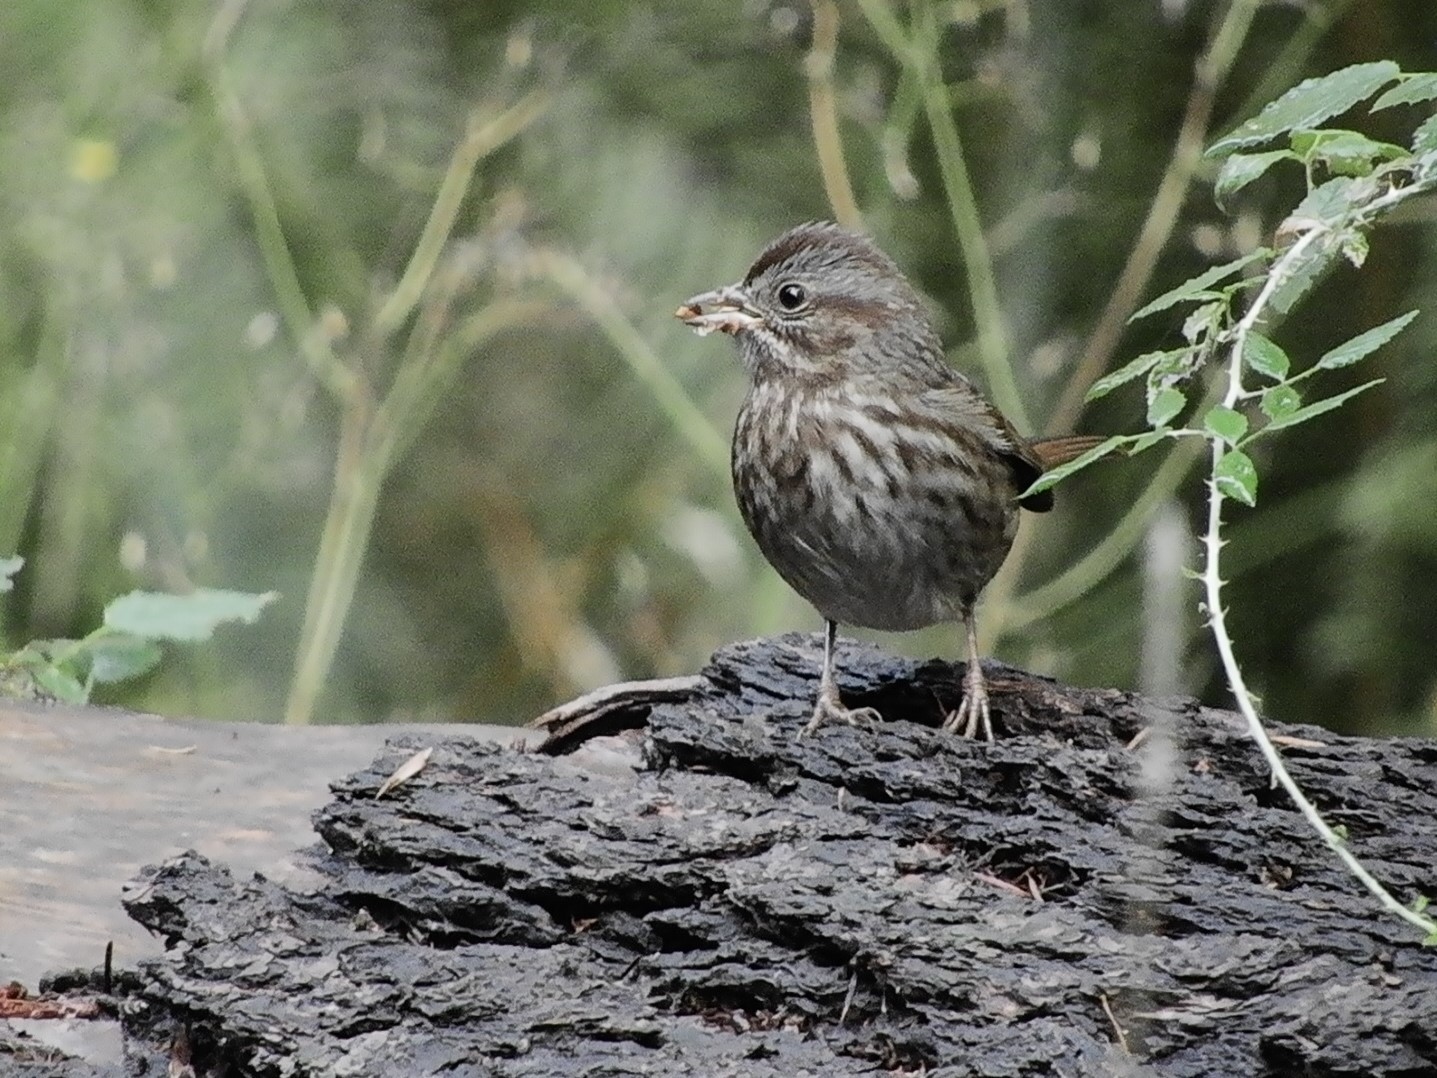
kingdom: Animalia
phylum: Chordata
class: Aves
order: Passeriformes
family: Passerellidae
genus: Melospiza
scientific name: Melospiza melodia
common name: Song sparrow
